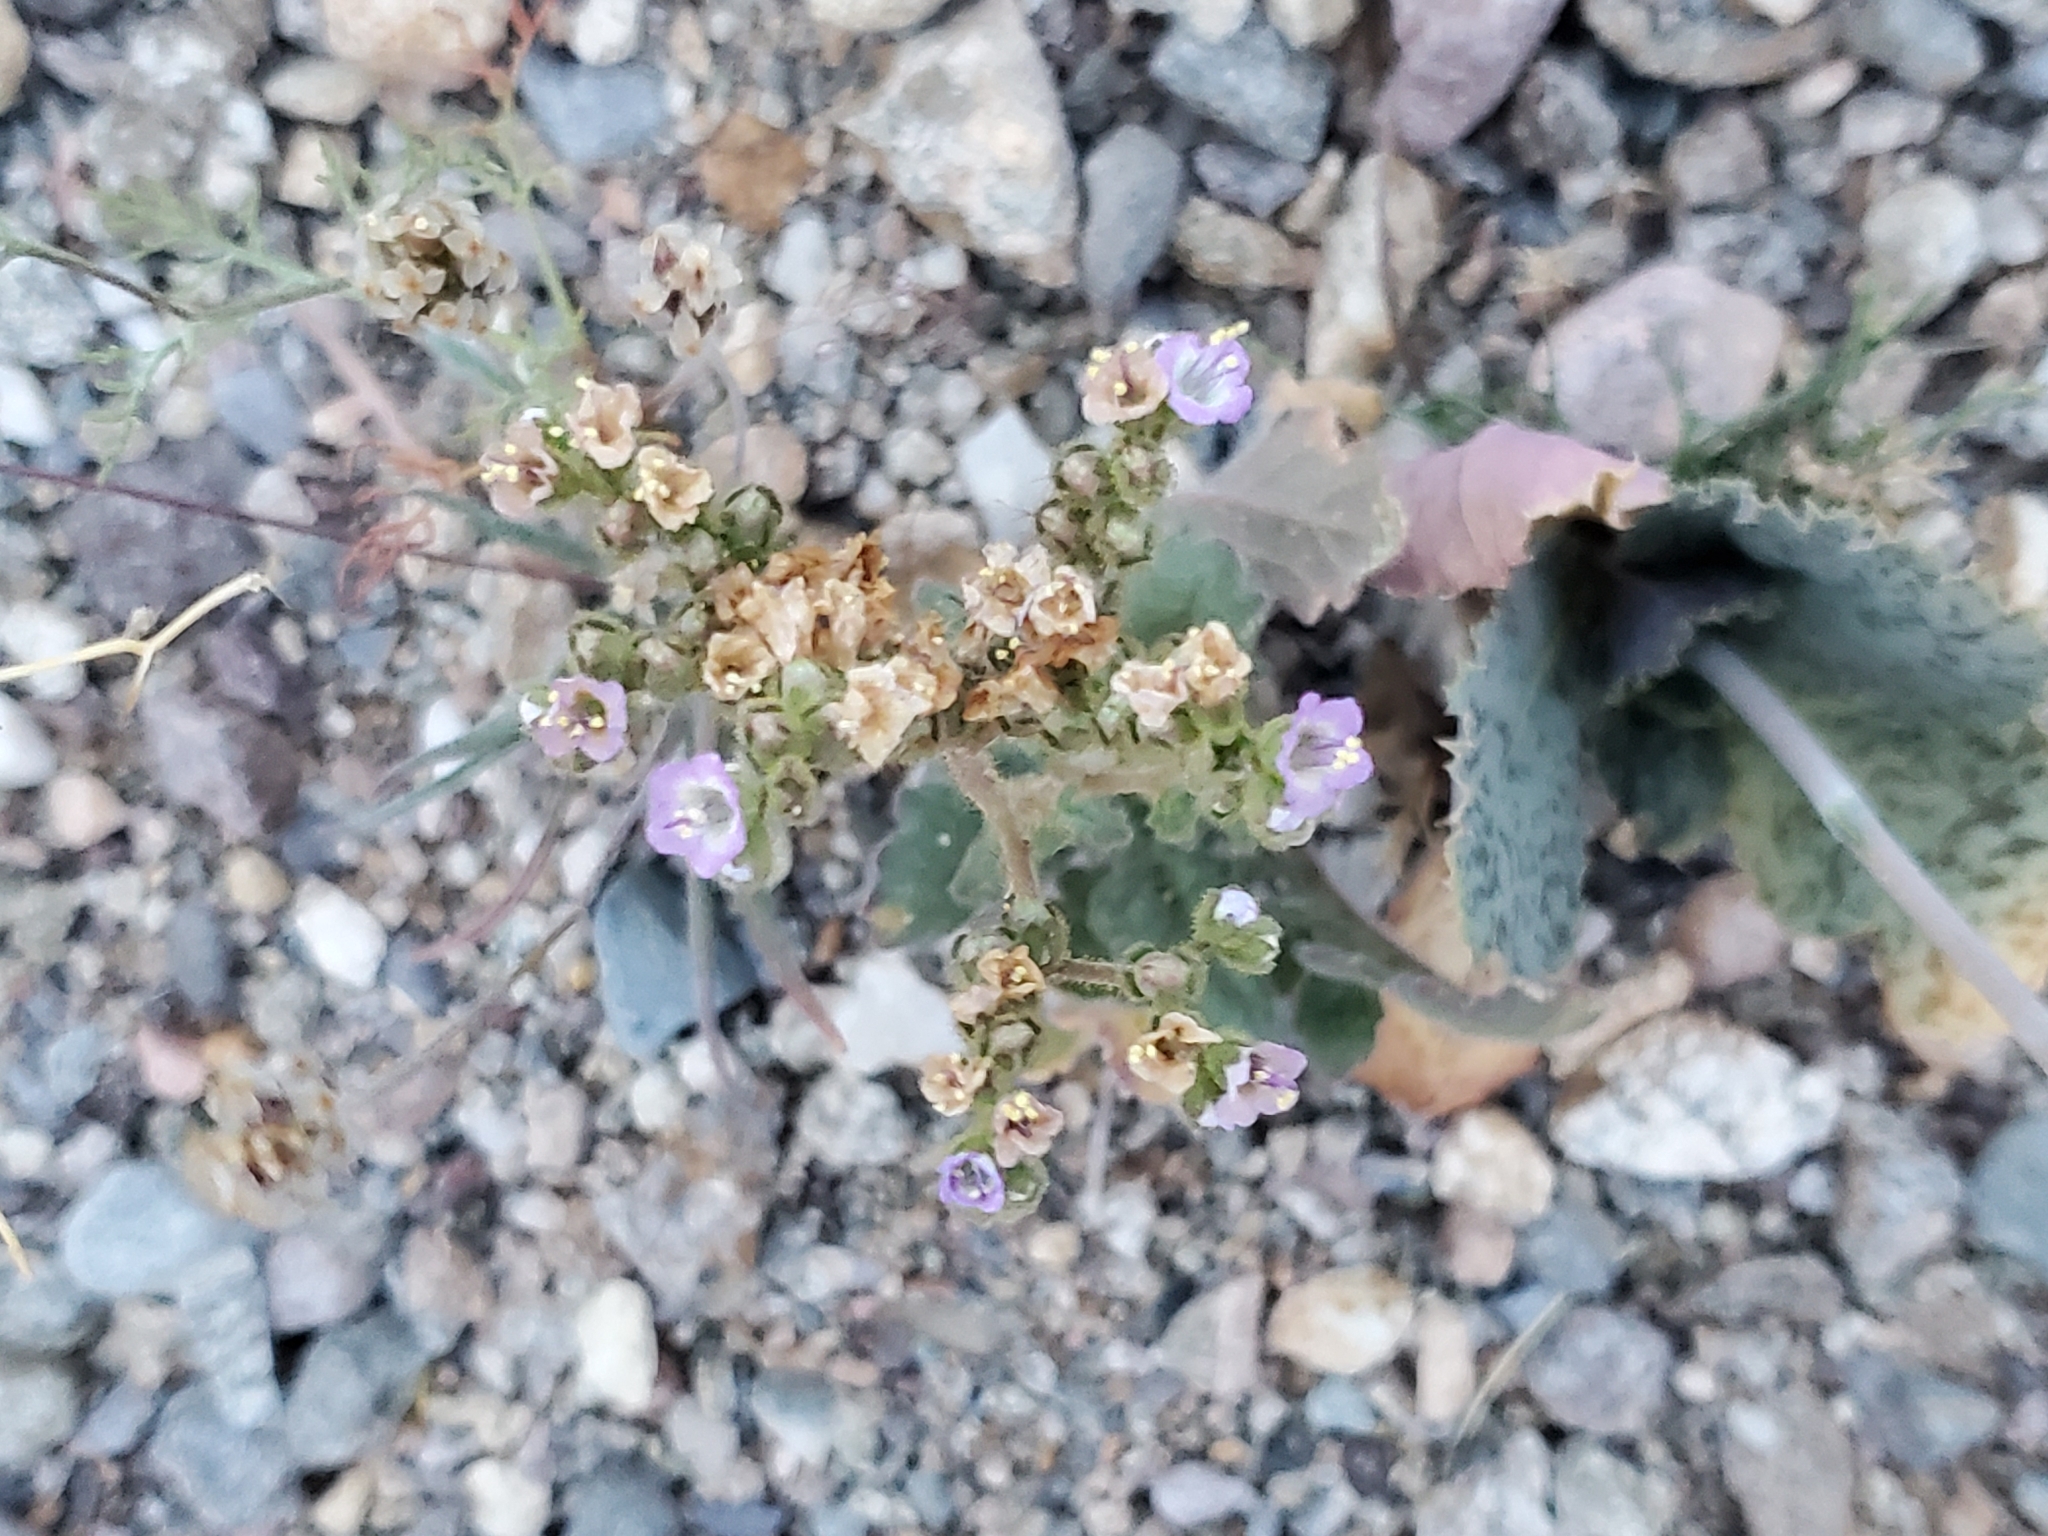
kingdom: Plantae
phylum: Tracheophyta
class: Magnoliopsida
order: Boraginales
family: Hydrophyllaceae
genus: Phacelia
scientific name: Phacelia minutiflora
